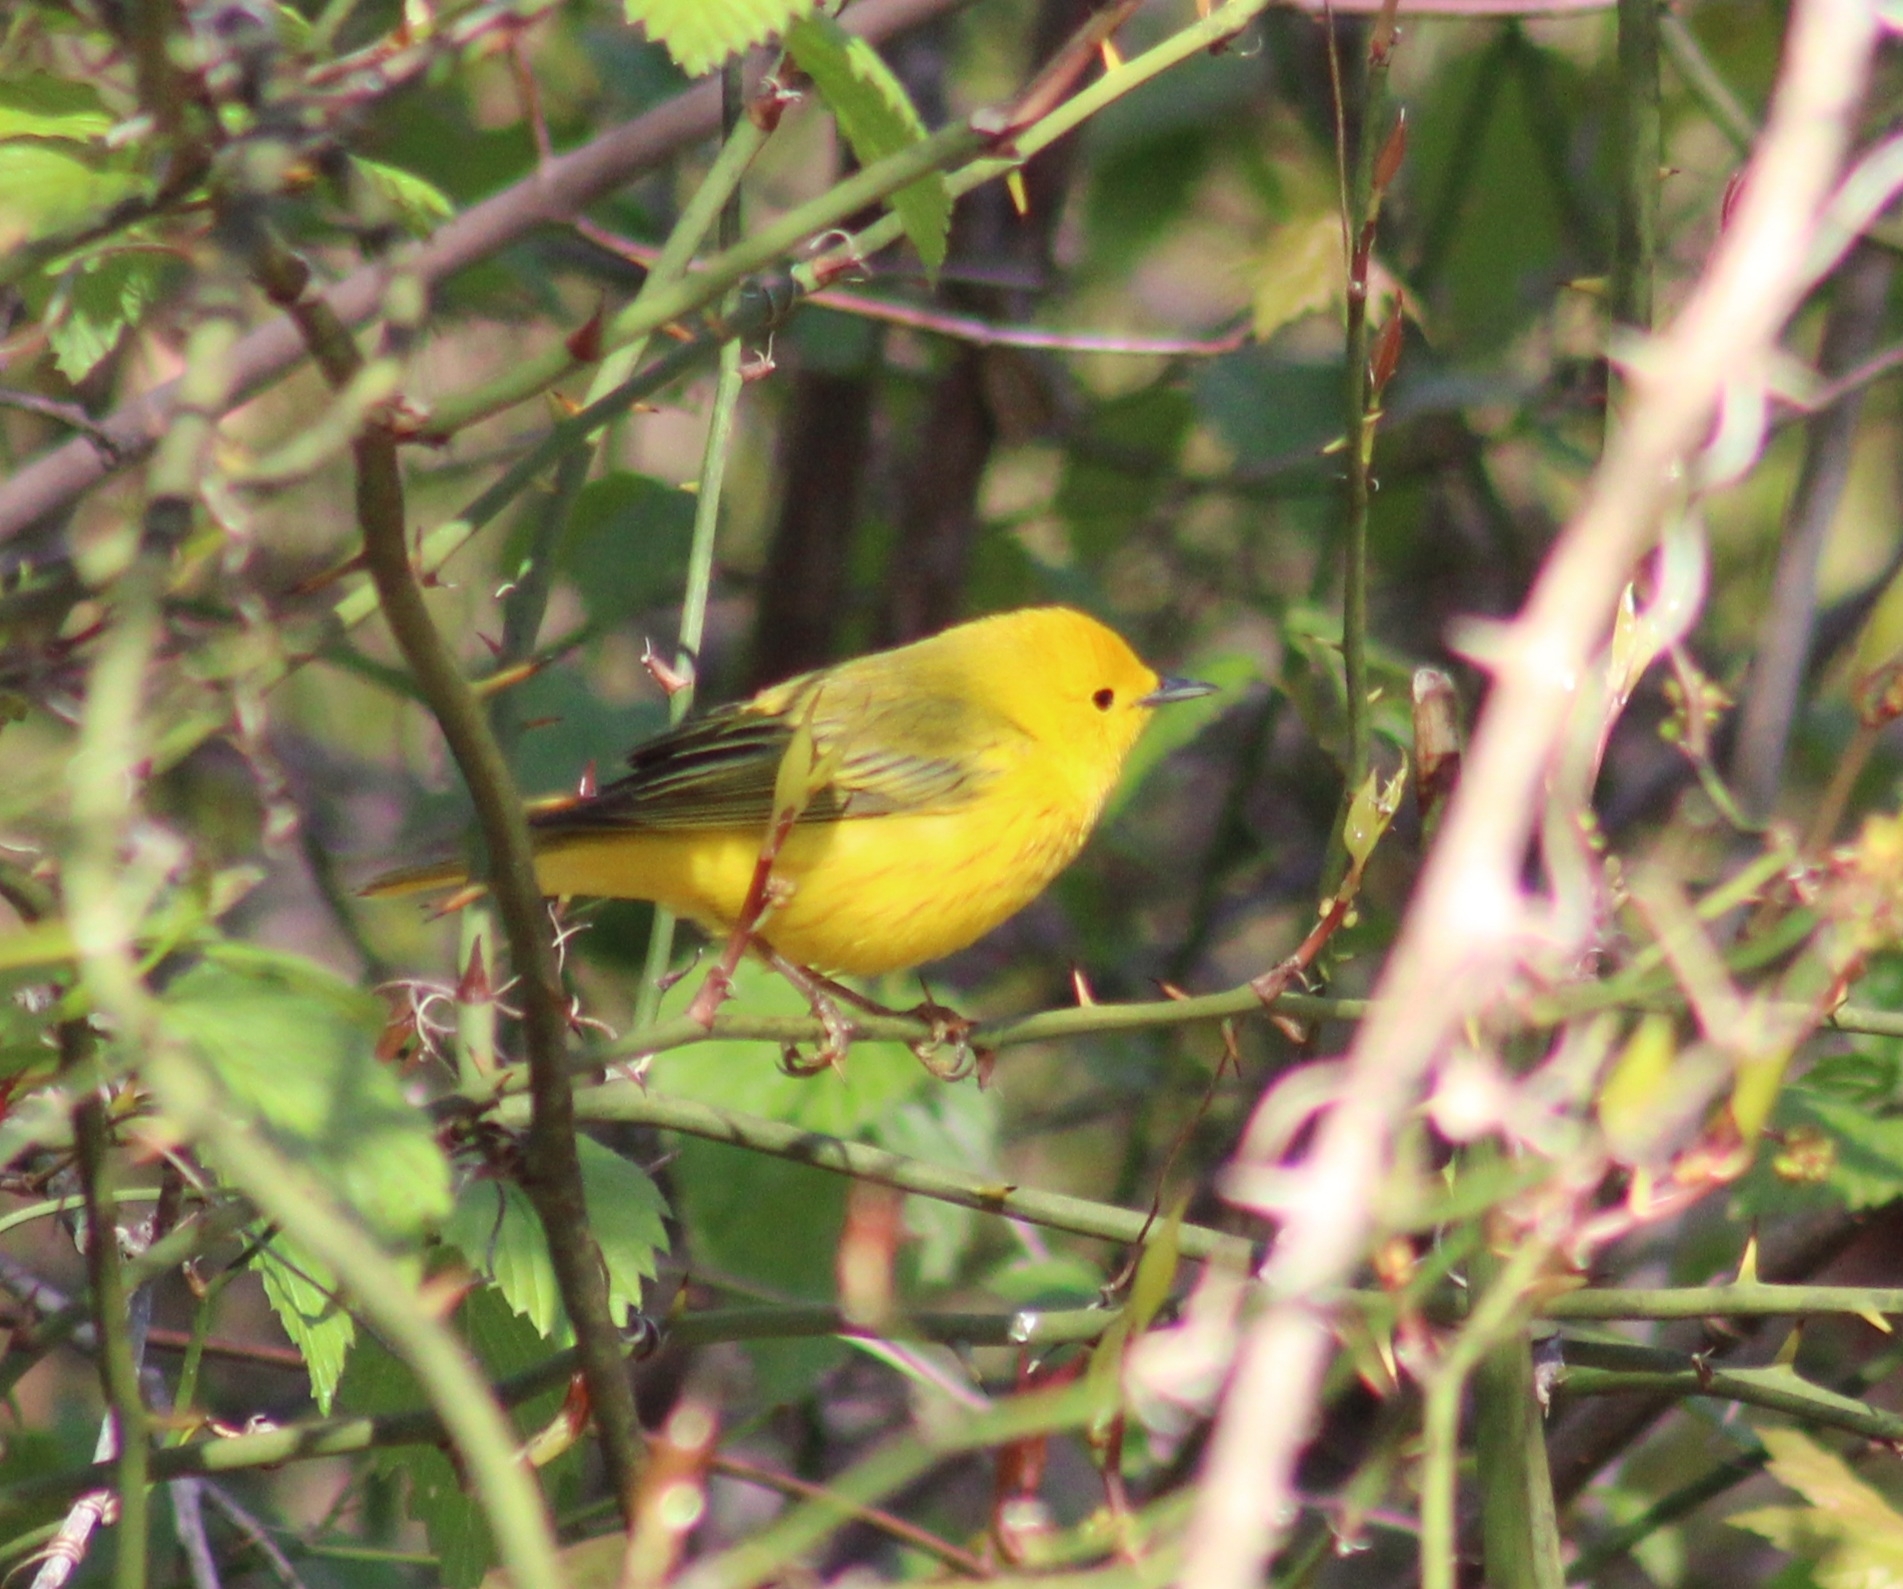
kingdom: Animalia
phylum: Chordata
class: Aves
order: Passeriformes
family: Parulidae
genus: Setophaga
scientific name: Setophaga petechia
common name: Yellow warbler
